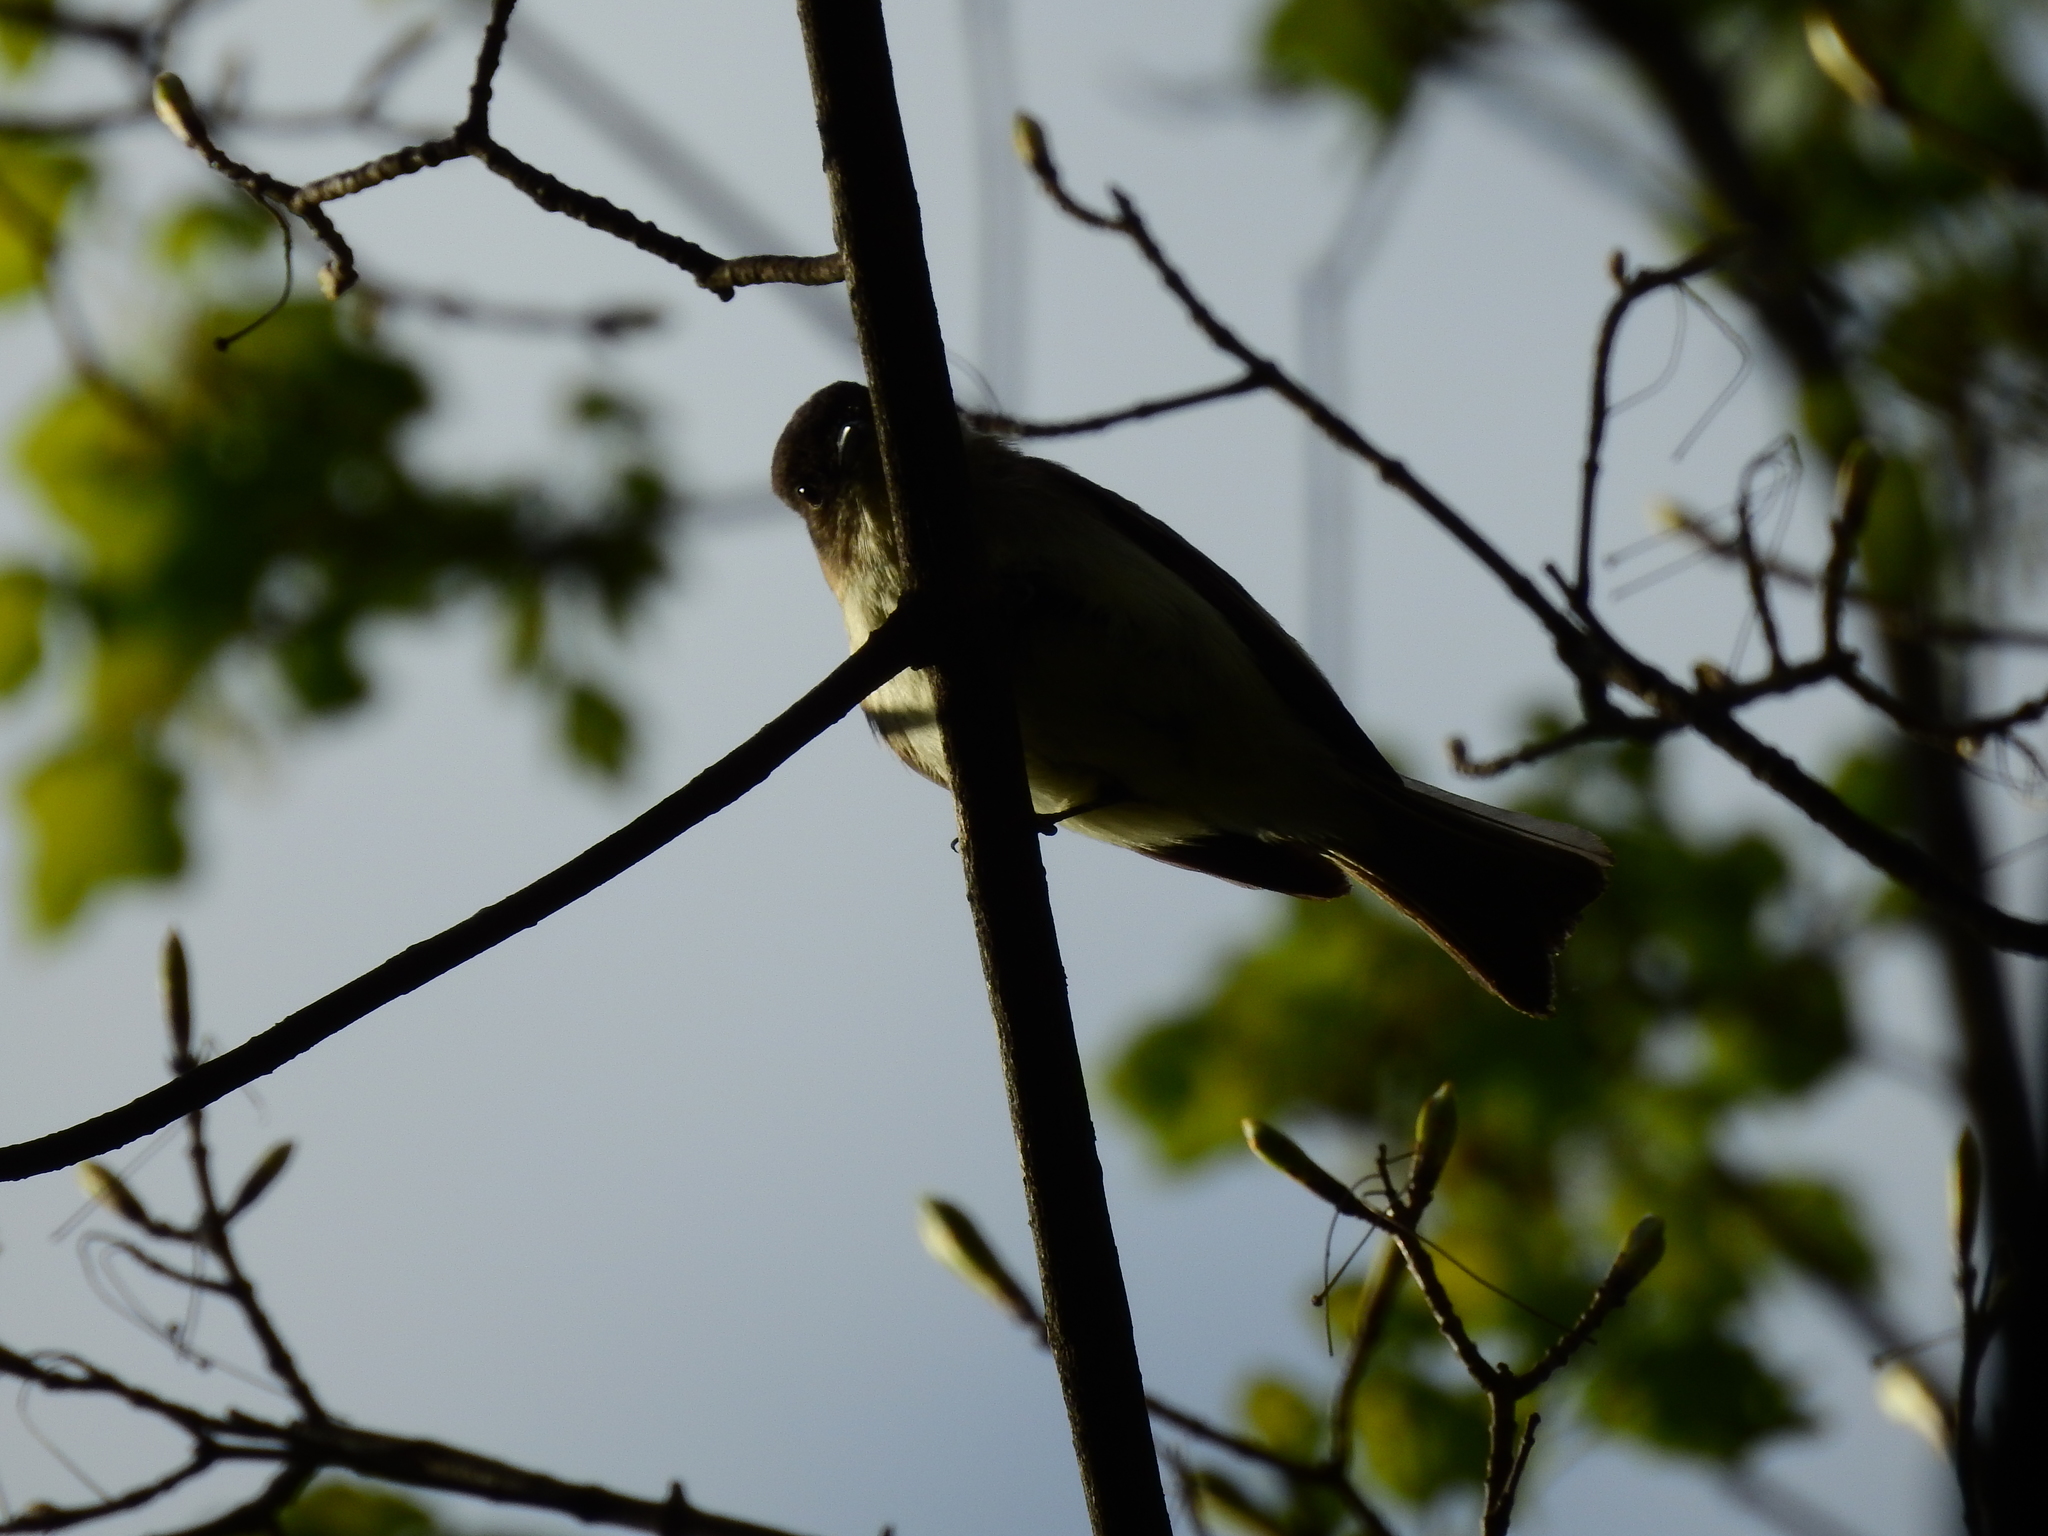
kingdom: Animalia
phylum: Chordata
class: Aves
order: Passeriformes
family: Tyrannidae
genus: Sayornis
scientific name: Sayornis phoebe
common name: Eastern phoebe
